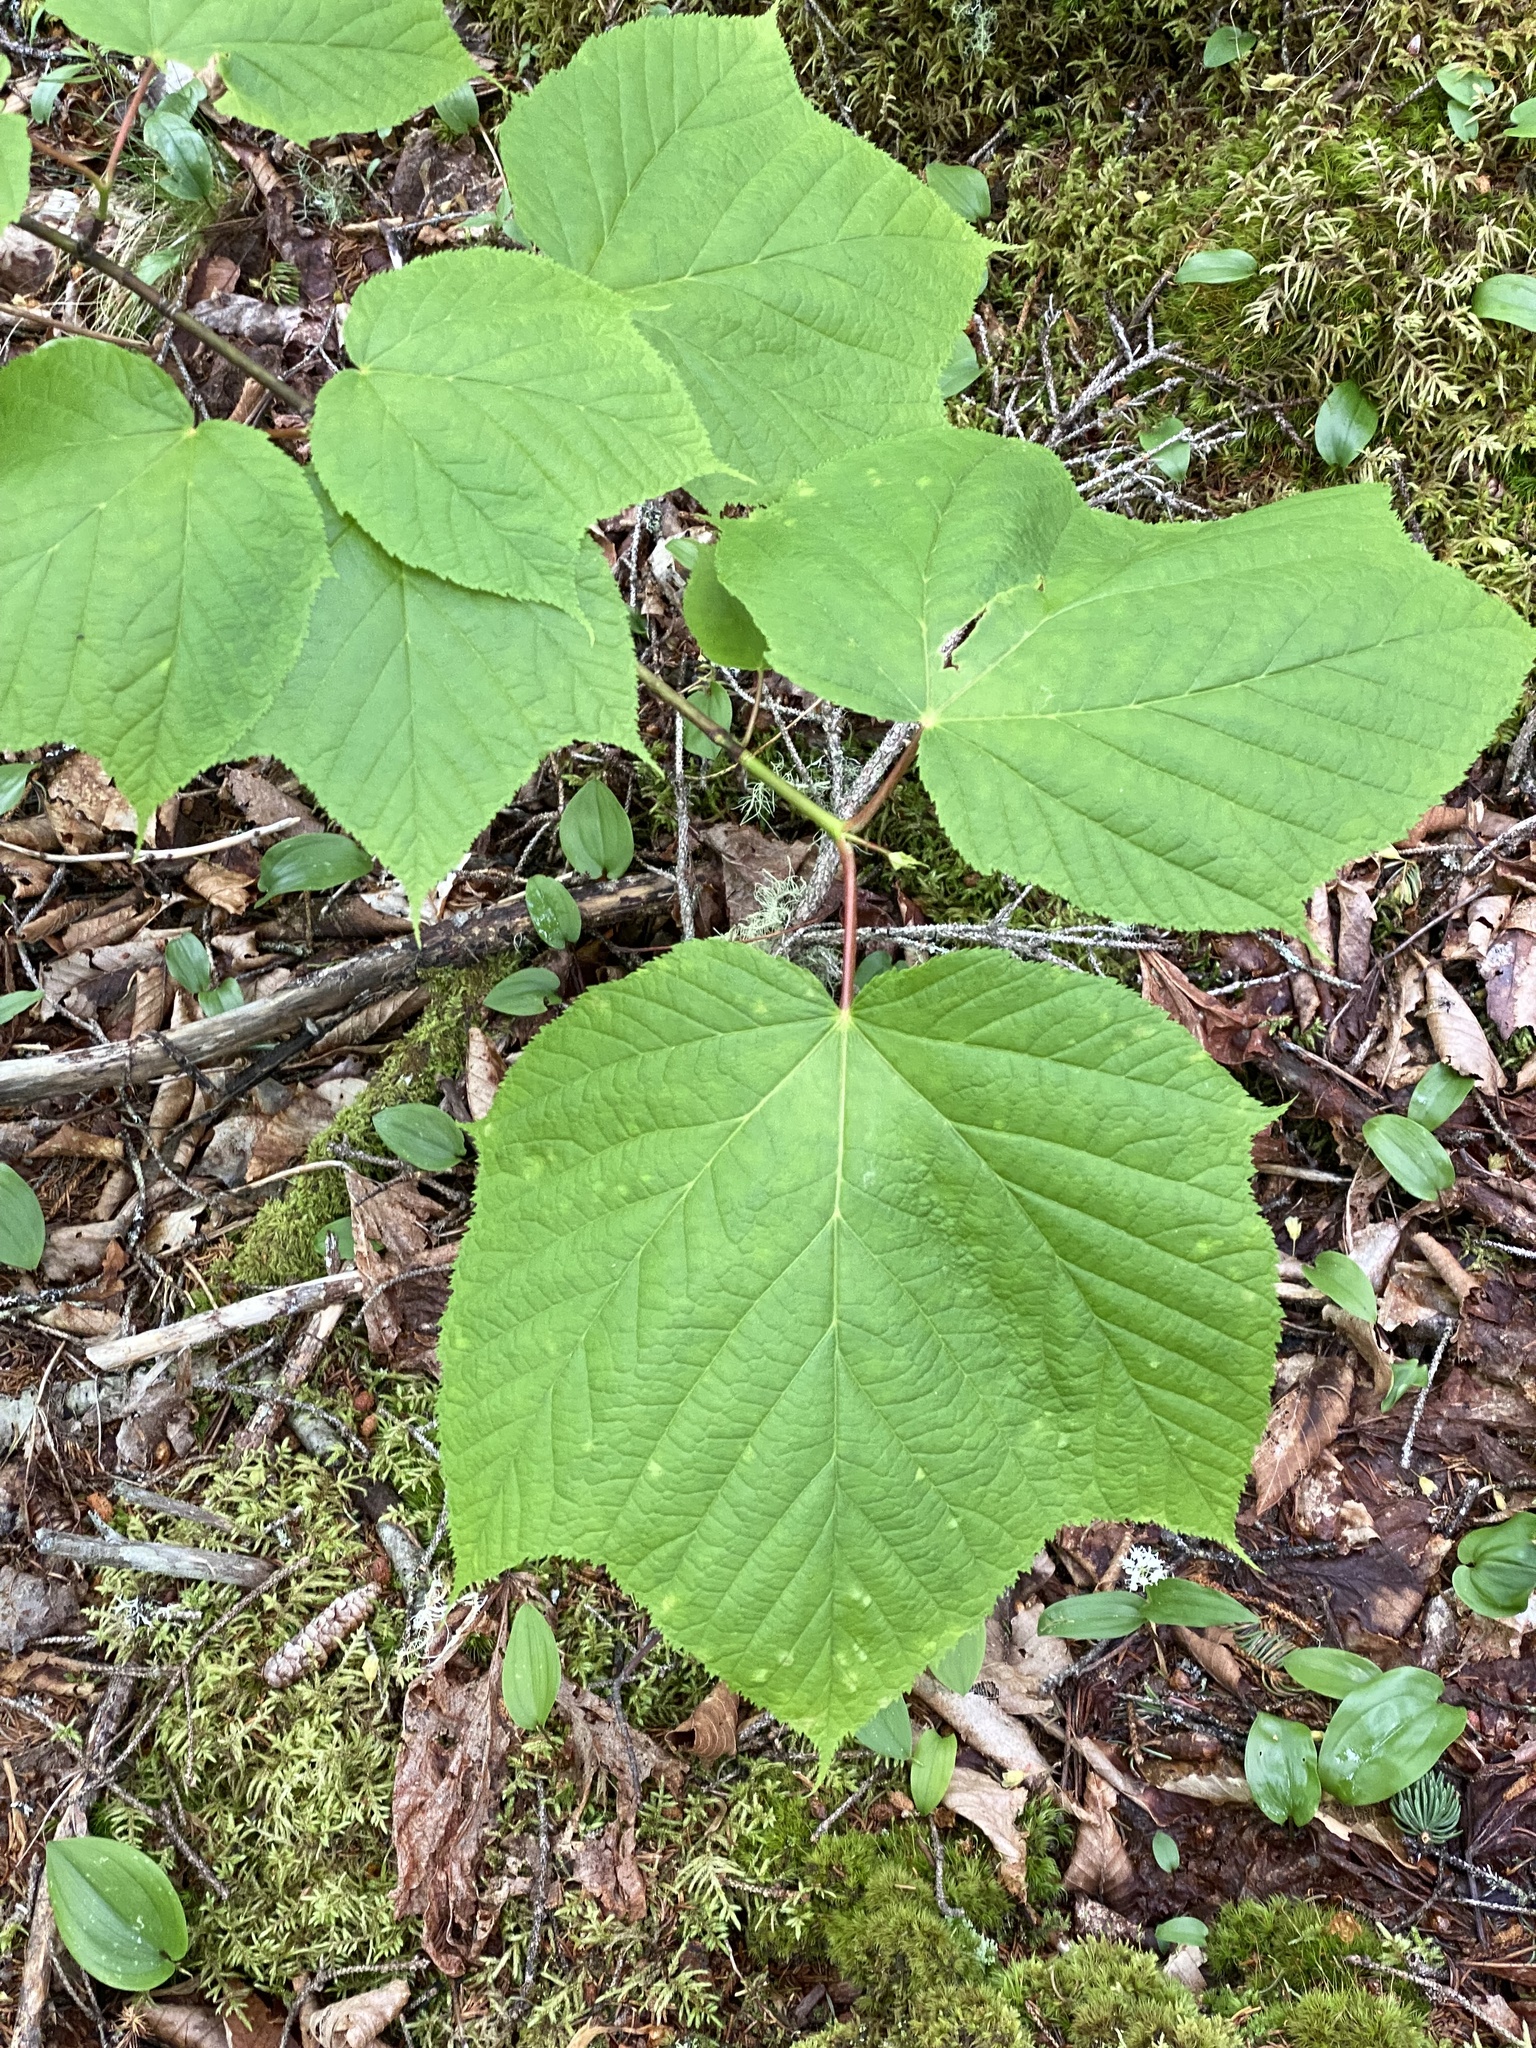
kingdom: Plantae
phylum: Tracheophyta
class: Magnoliopsida
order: Sapindales
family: Sapindaceae
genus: Acer
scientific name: Acer pensylvanicum
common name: Moosewood
